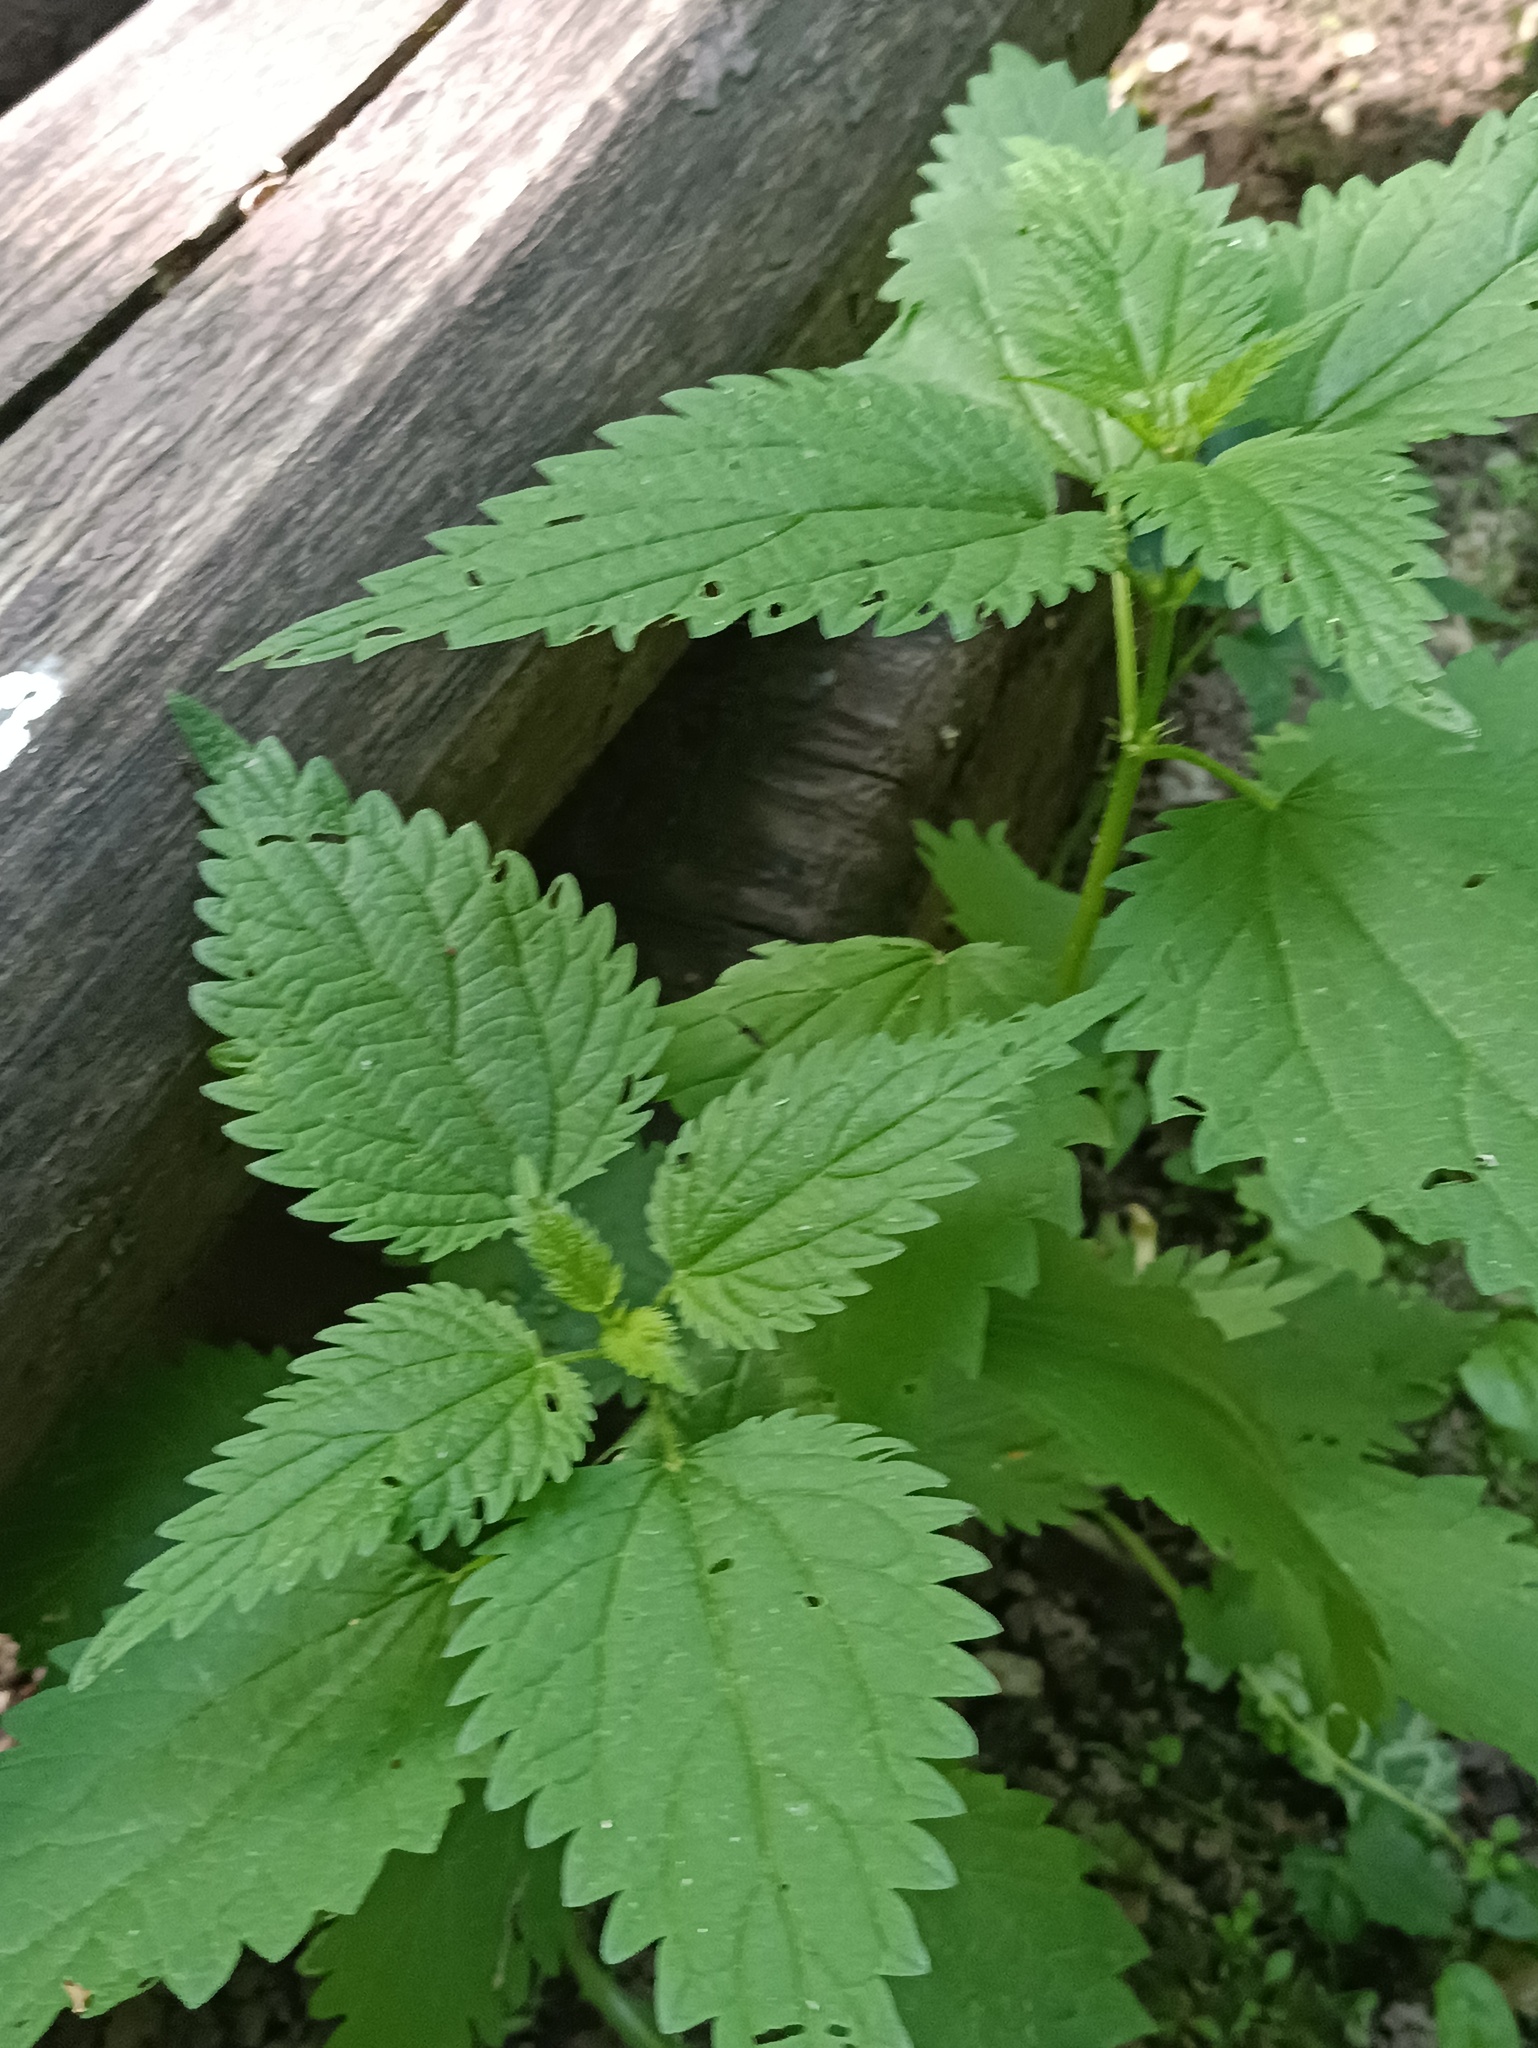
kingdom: Plantae
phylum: Tracheophyta
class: Magnoliopsida
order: Rosales
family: Urticaceae
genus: Urtica
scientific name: Urtica dioica
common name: Common nettle
